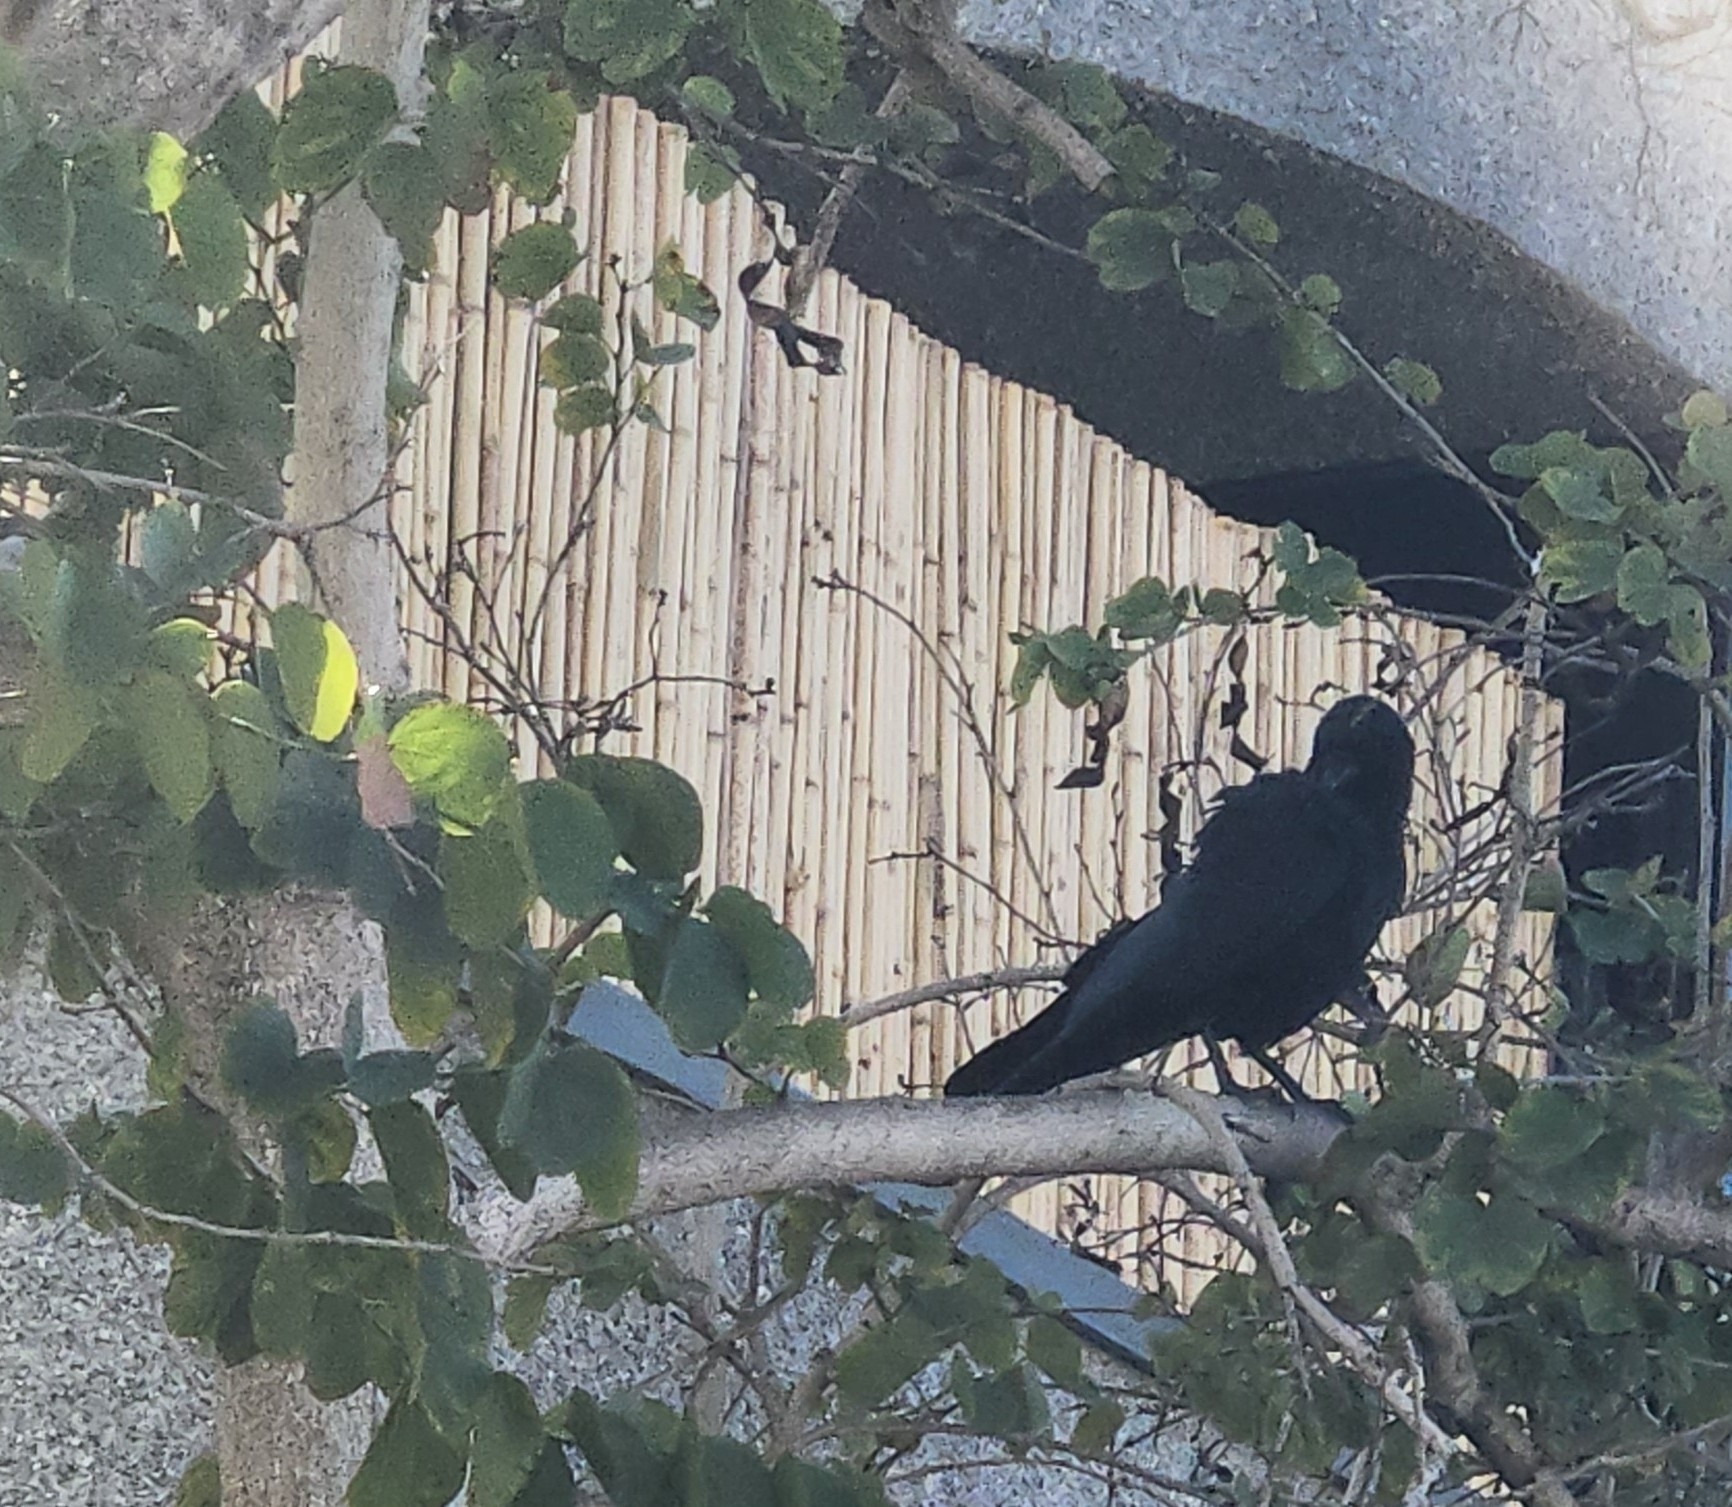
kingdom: Animalia
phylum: Chordata
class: Aves
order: Passeriformes
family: Corvidae
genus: Corvus
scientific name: Corvus brachyrhynchos
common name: American crow
